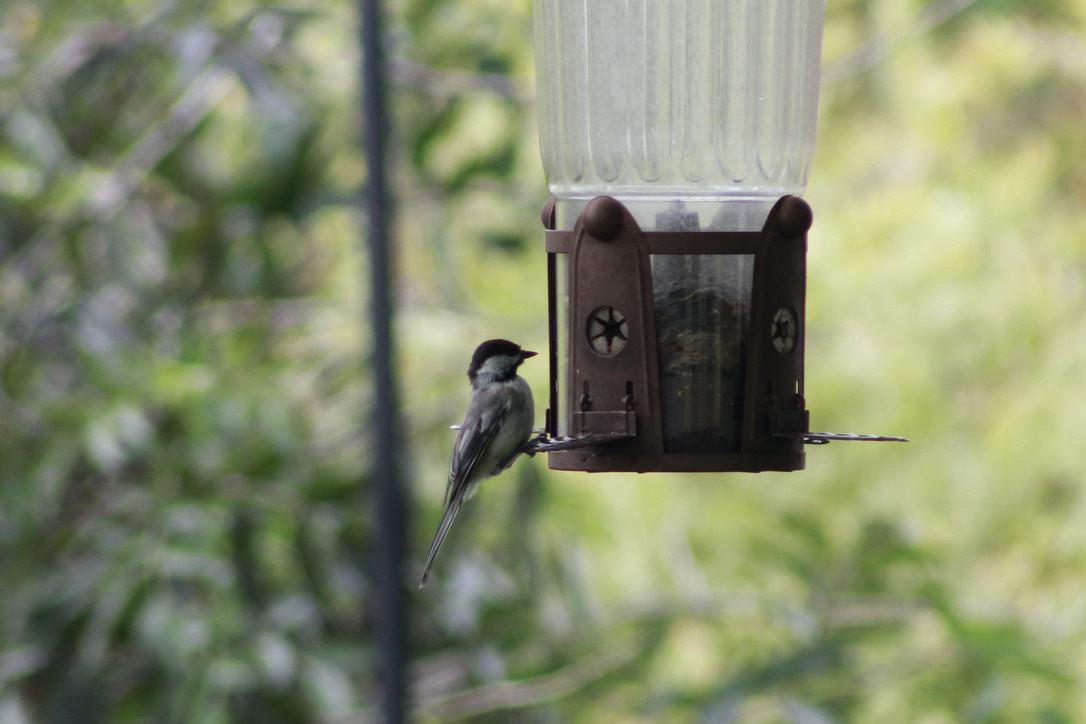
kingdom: Animalia
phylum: Chordata
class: Aves
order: Passeriformes
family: Paridae
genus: Poecile
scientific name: Poecile atricapillus
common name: Black-capped chickadee
